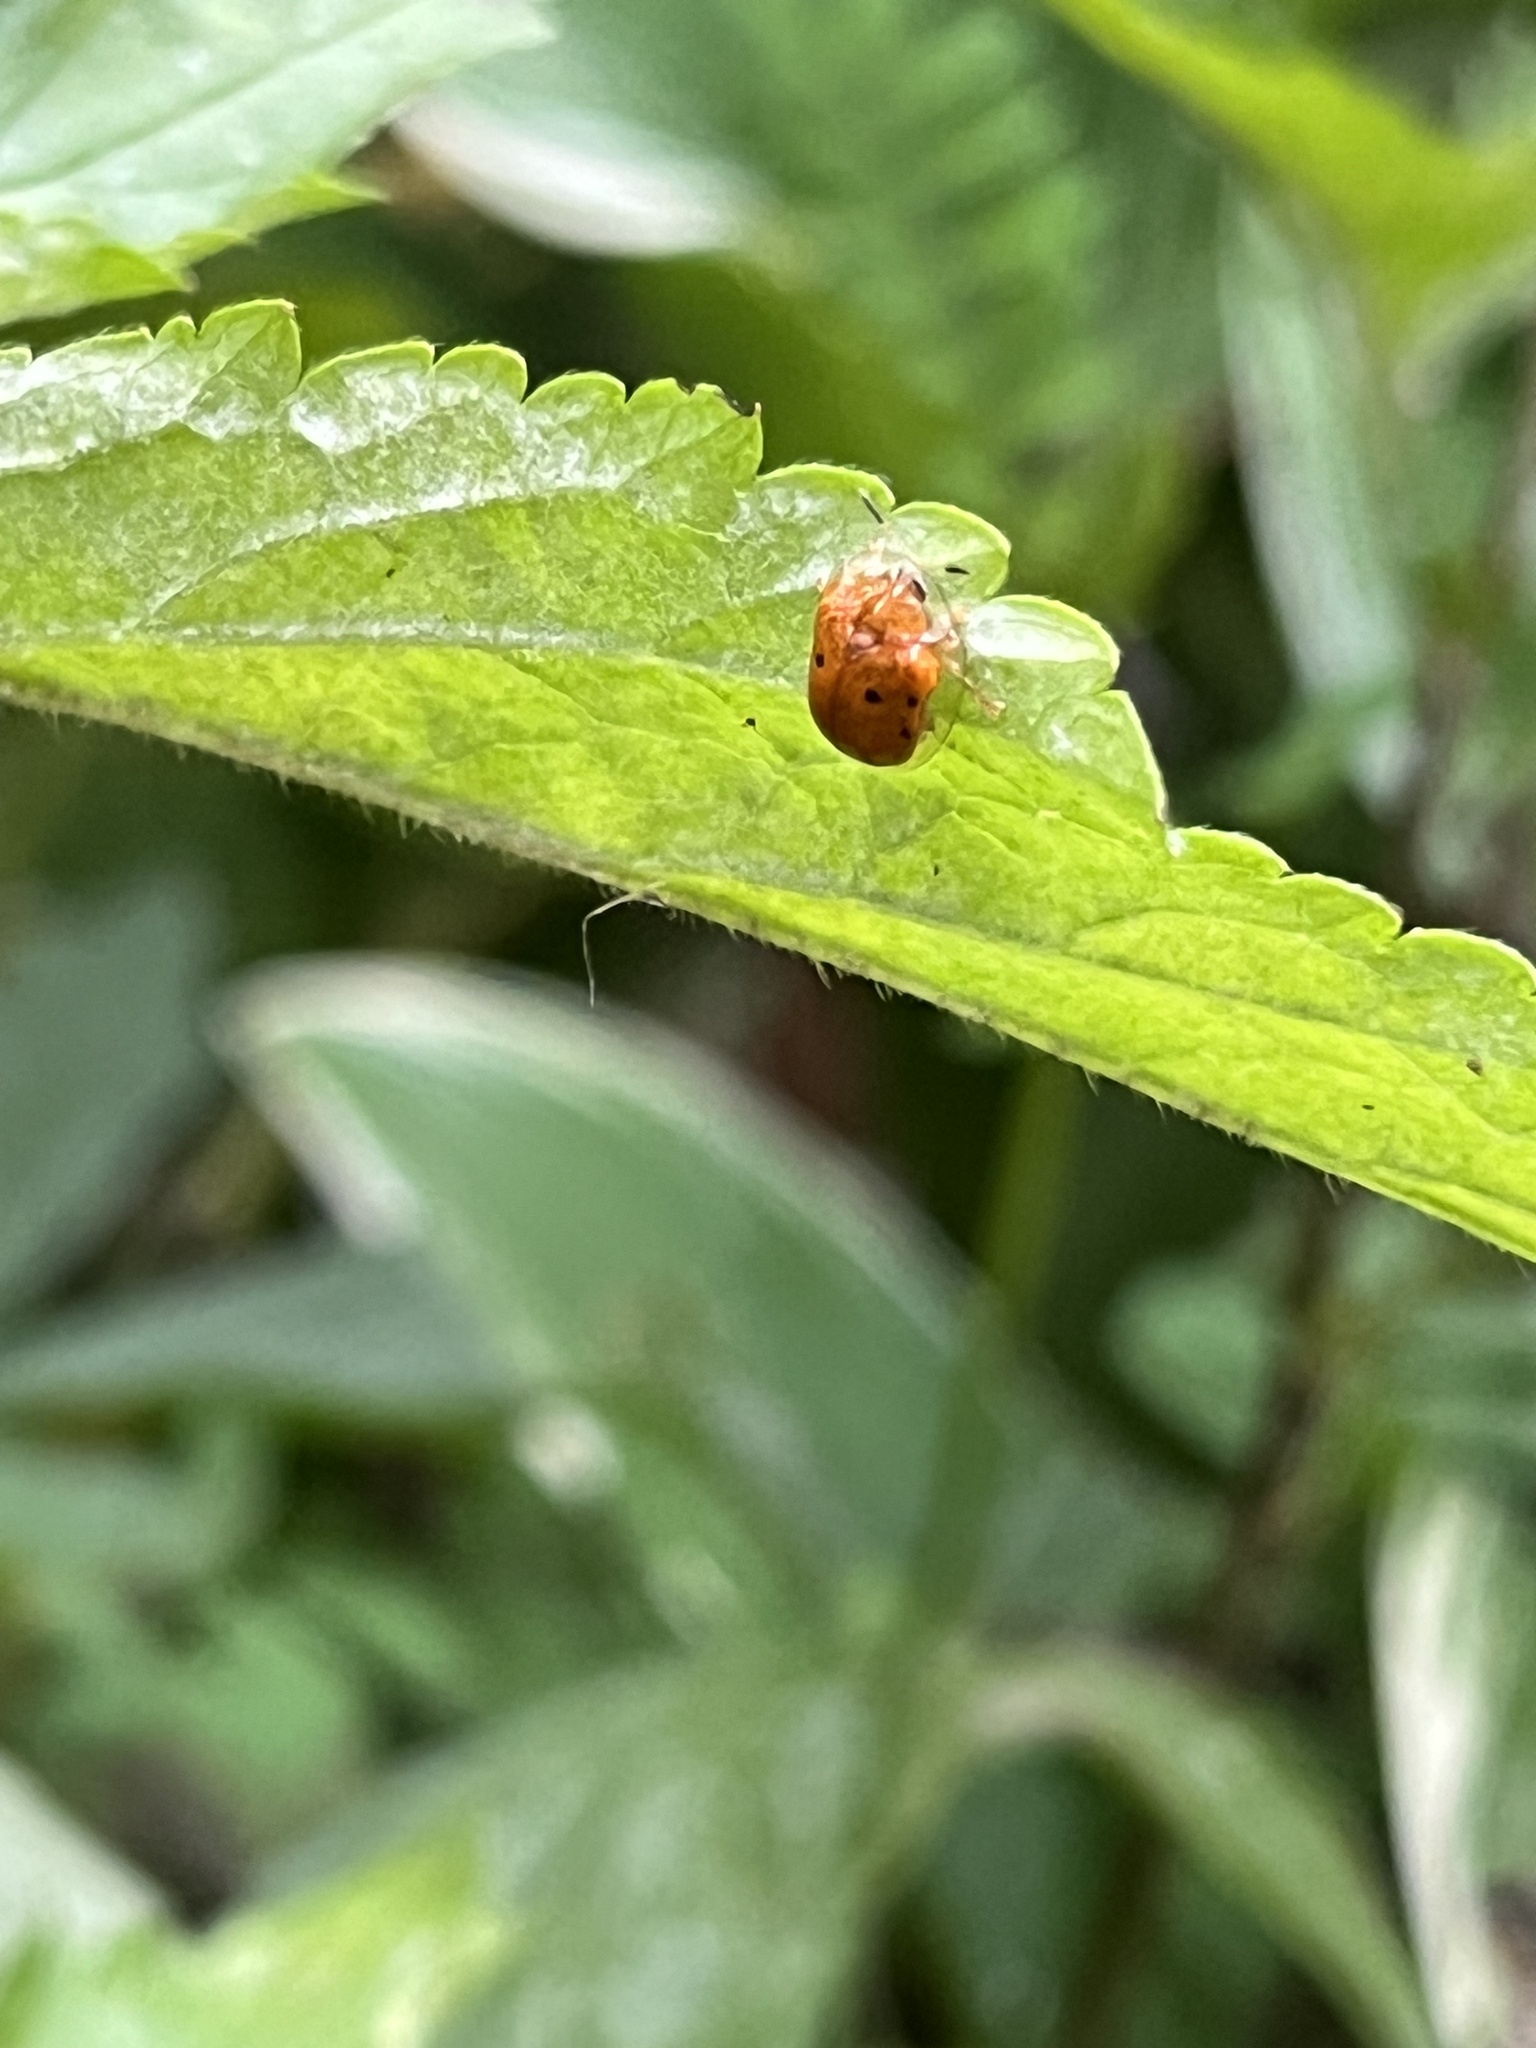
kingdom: Animalia
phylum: Arthropoda
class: Insecta
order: Coleoptera
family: Chrysomelidae
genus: Charidotella
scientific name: Charidotella sexpunctata
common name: Golden tortoise beetle
